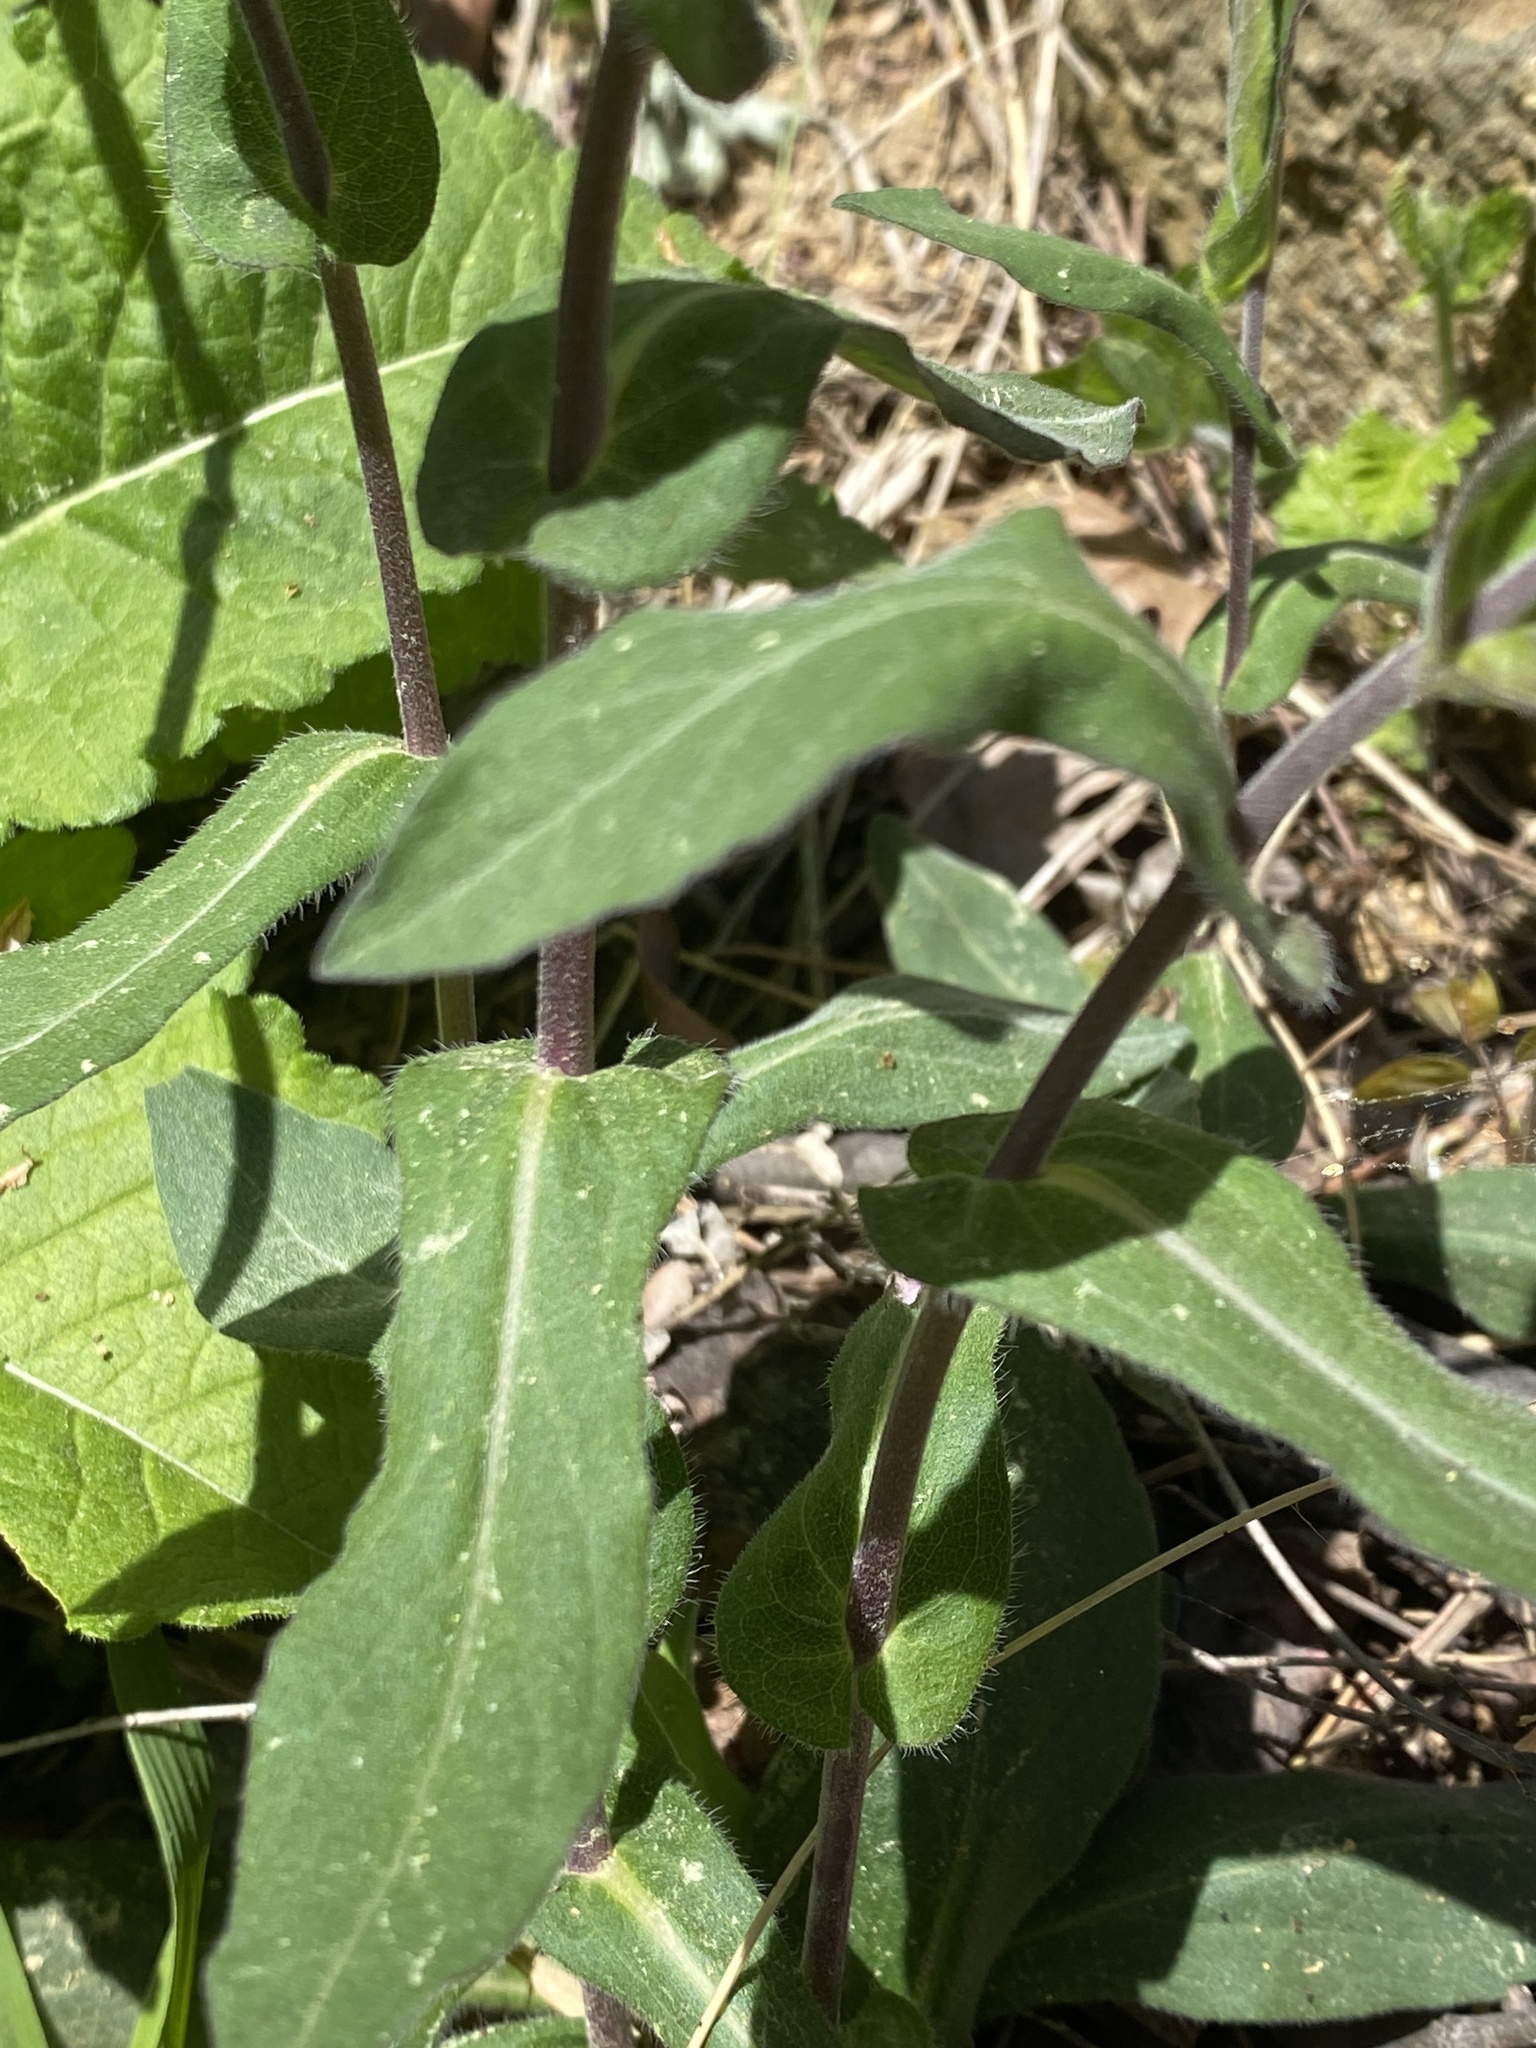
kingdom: Plantae
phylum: Tracheophyta
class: Magnoliopsida
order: Asterales
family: Asteraceae
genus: Symphyotrichum
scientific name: Symphyotrichum patens
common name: Late purple aster
